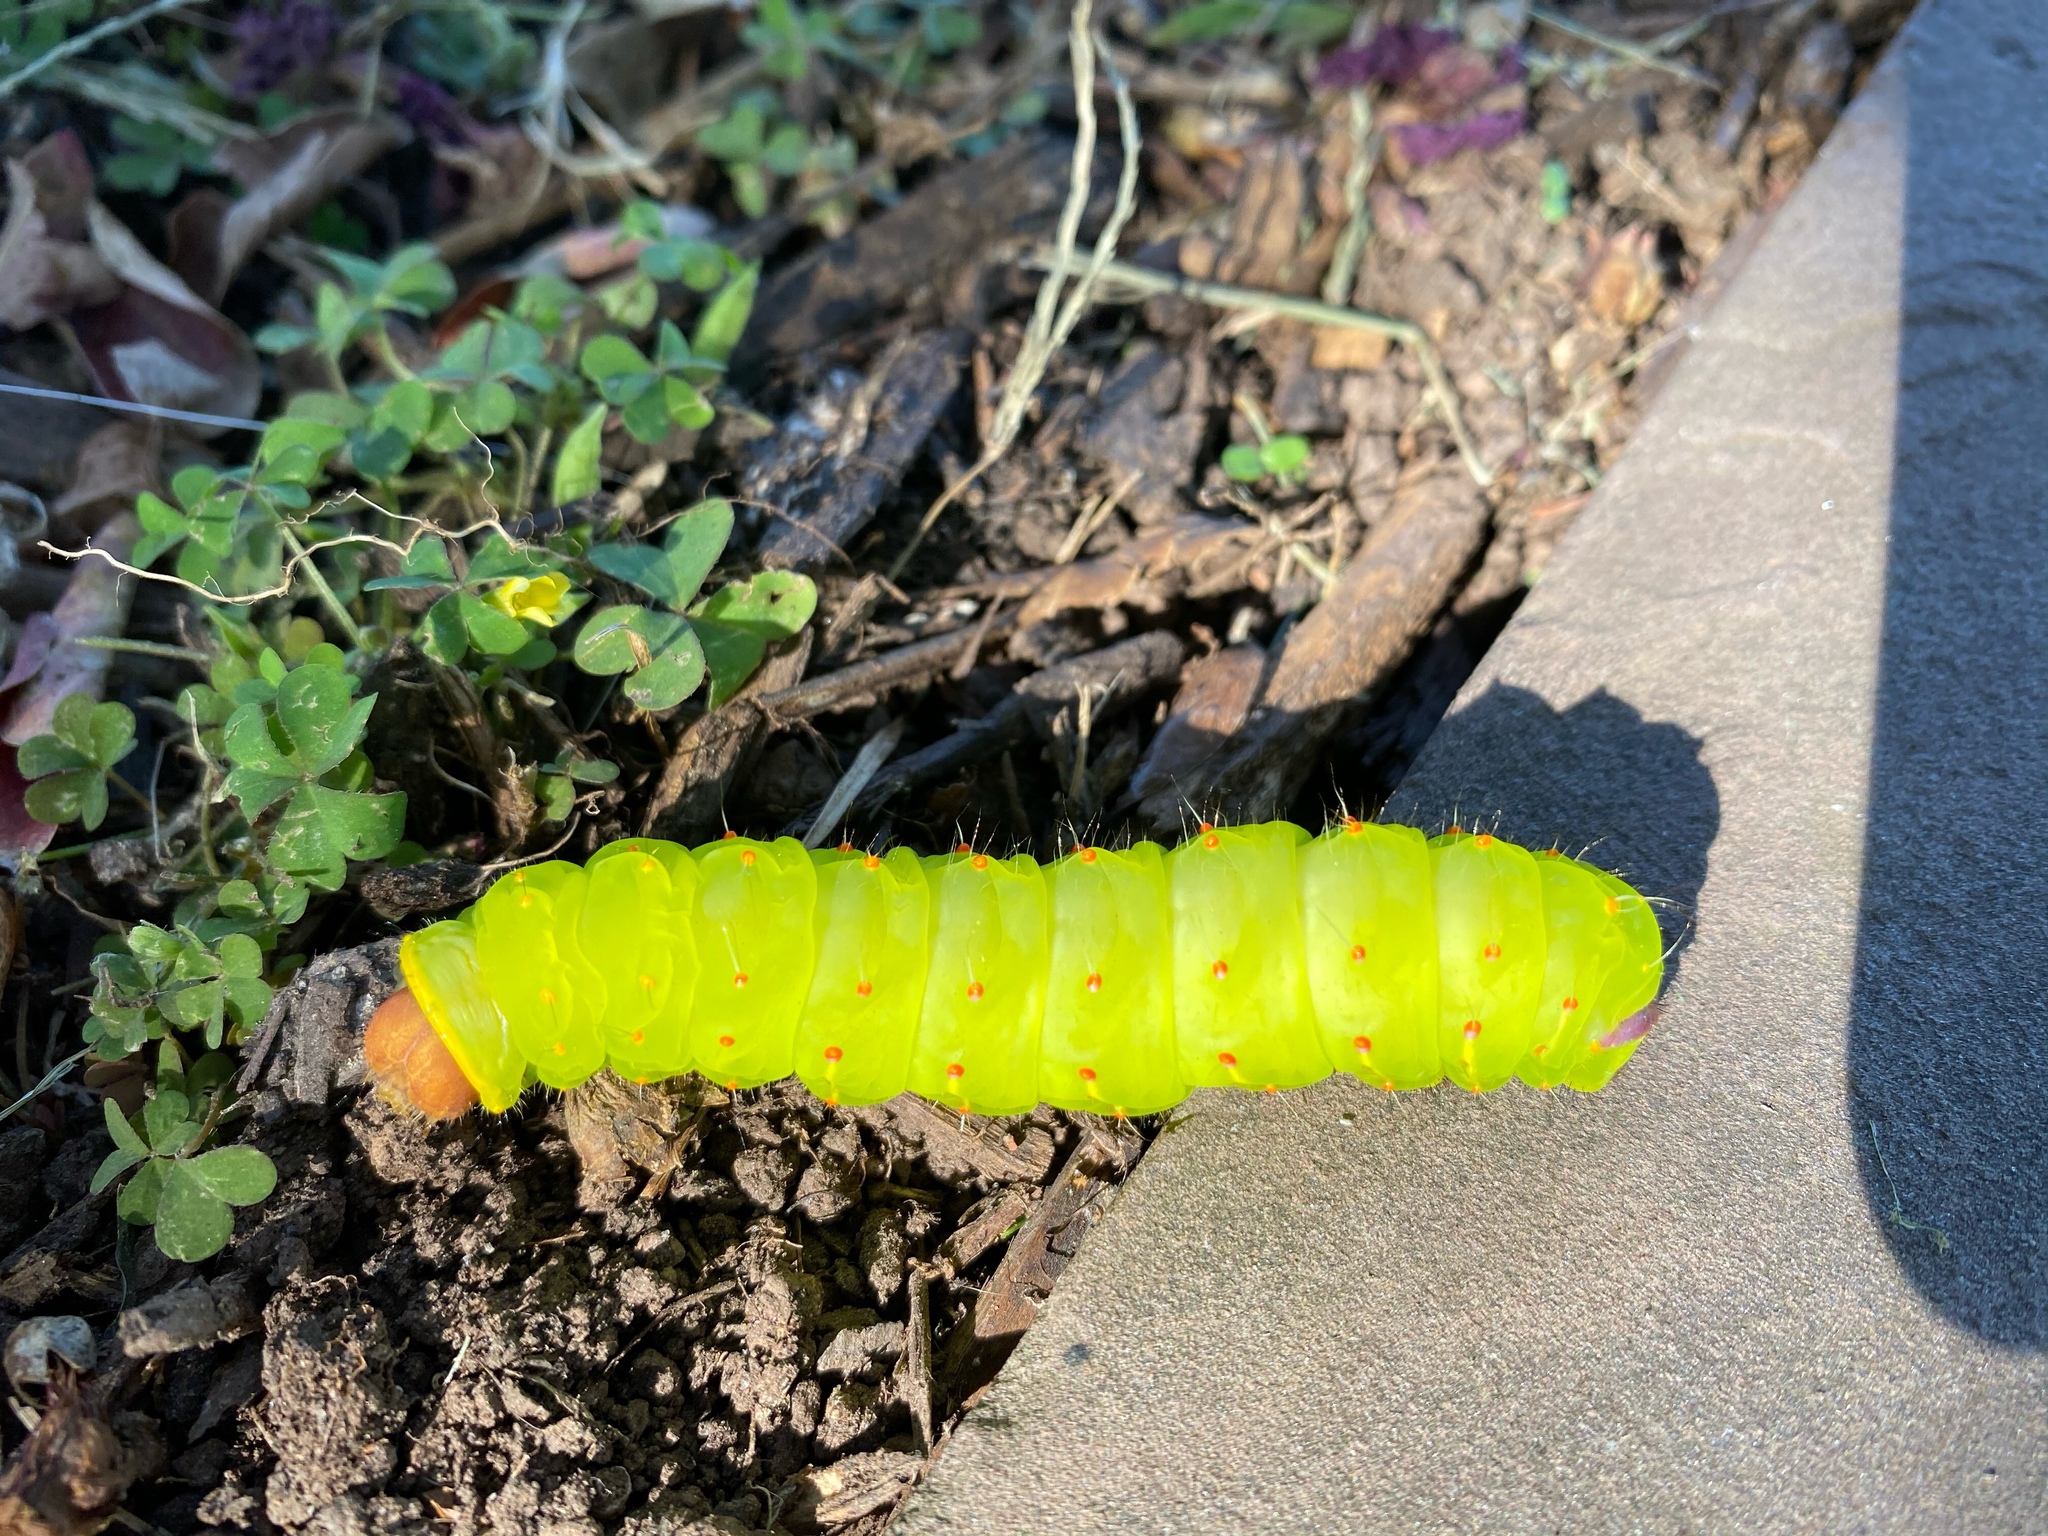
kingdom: Animalia
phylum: Arthropoda
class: Insecta
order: Lepidoptera
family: Saturniidae
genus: Antheraea
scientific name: Antheraea polyphemus
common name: Polyphemus moth
